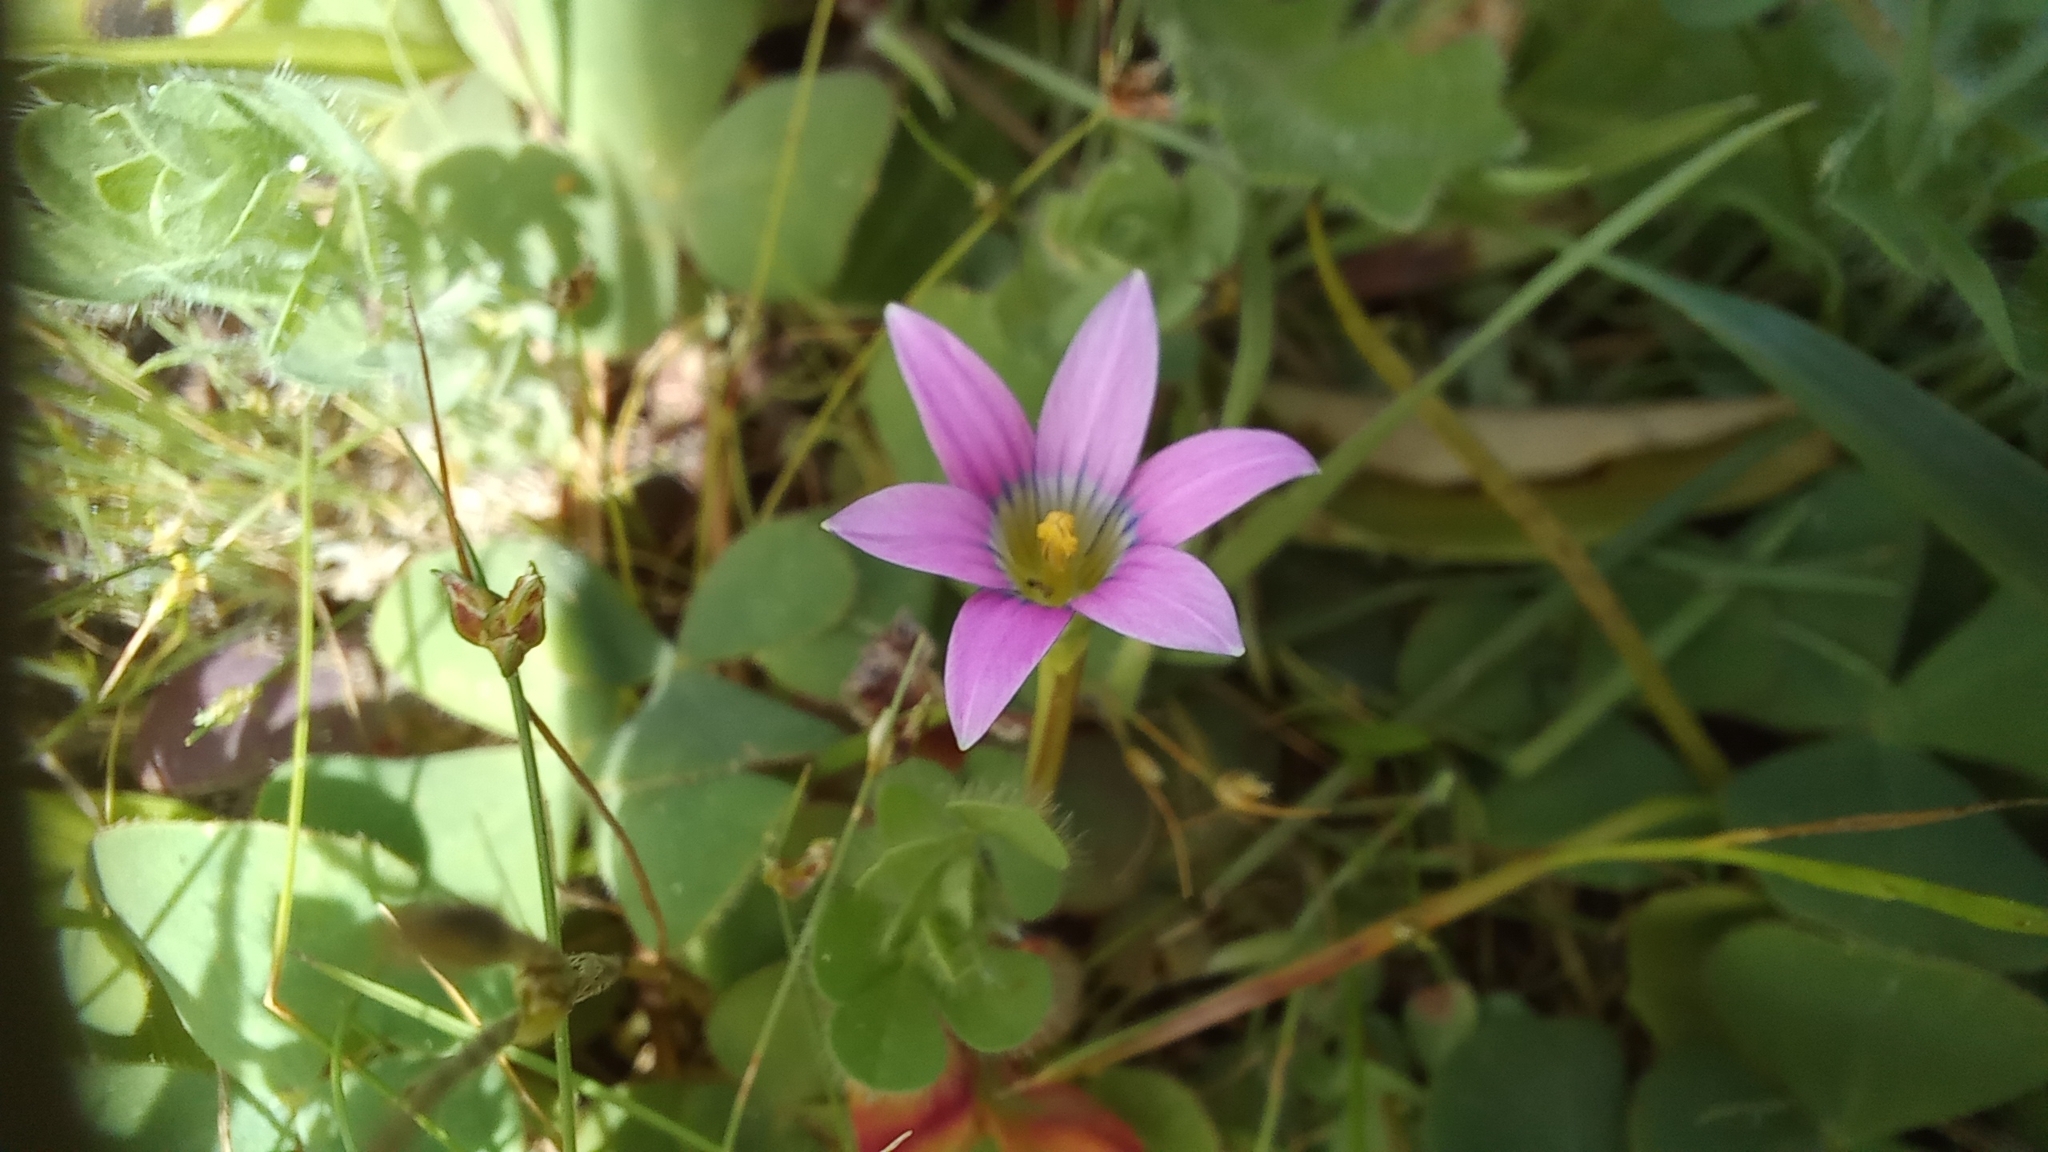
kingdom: Plantae
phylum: Tracheophyta
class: Liliopsida
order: Asparagales
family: Iridaceae
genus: Romulea
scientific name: Romulea rosea
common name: Oniongrass
